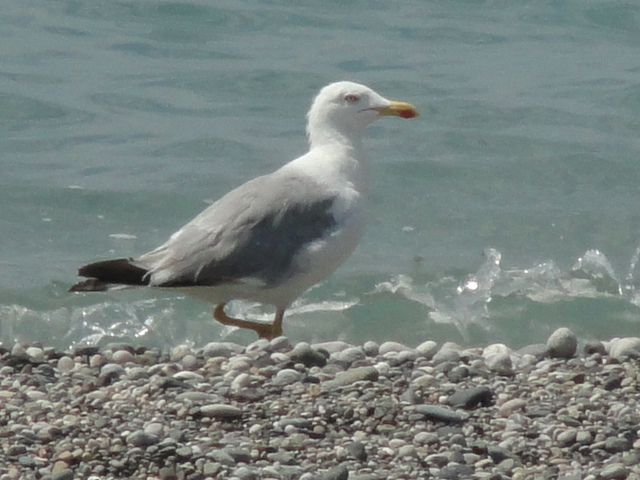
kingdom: Animalia
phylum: Chordata
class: Aves
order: Charadriiformes
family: Laridae
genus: Larus
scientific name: Larus michahellis
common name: Yellow-legged gull
